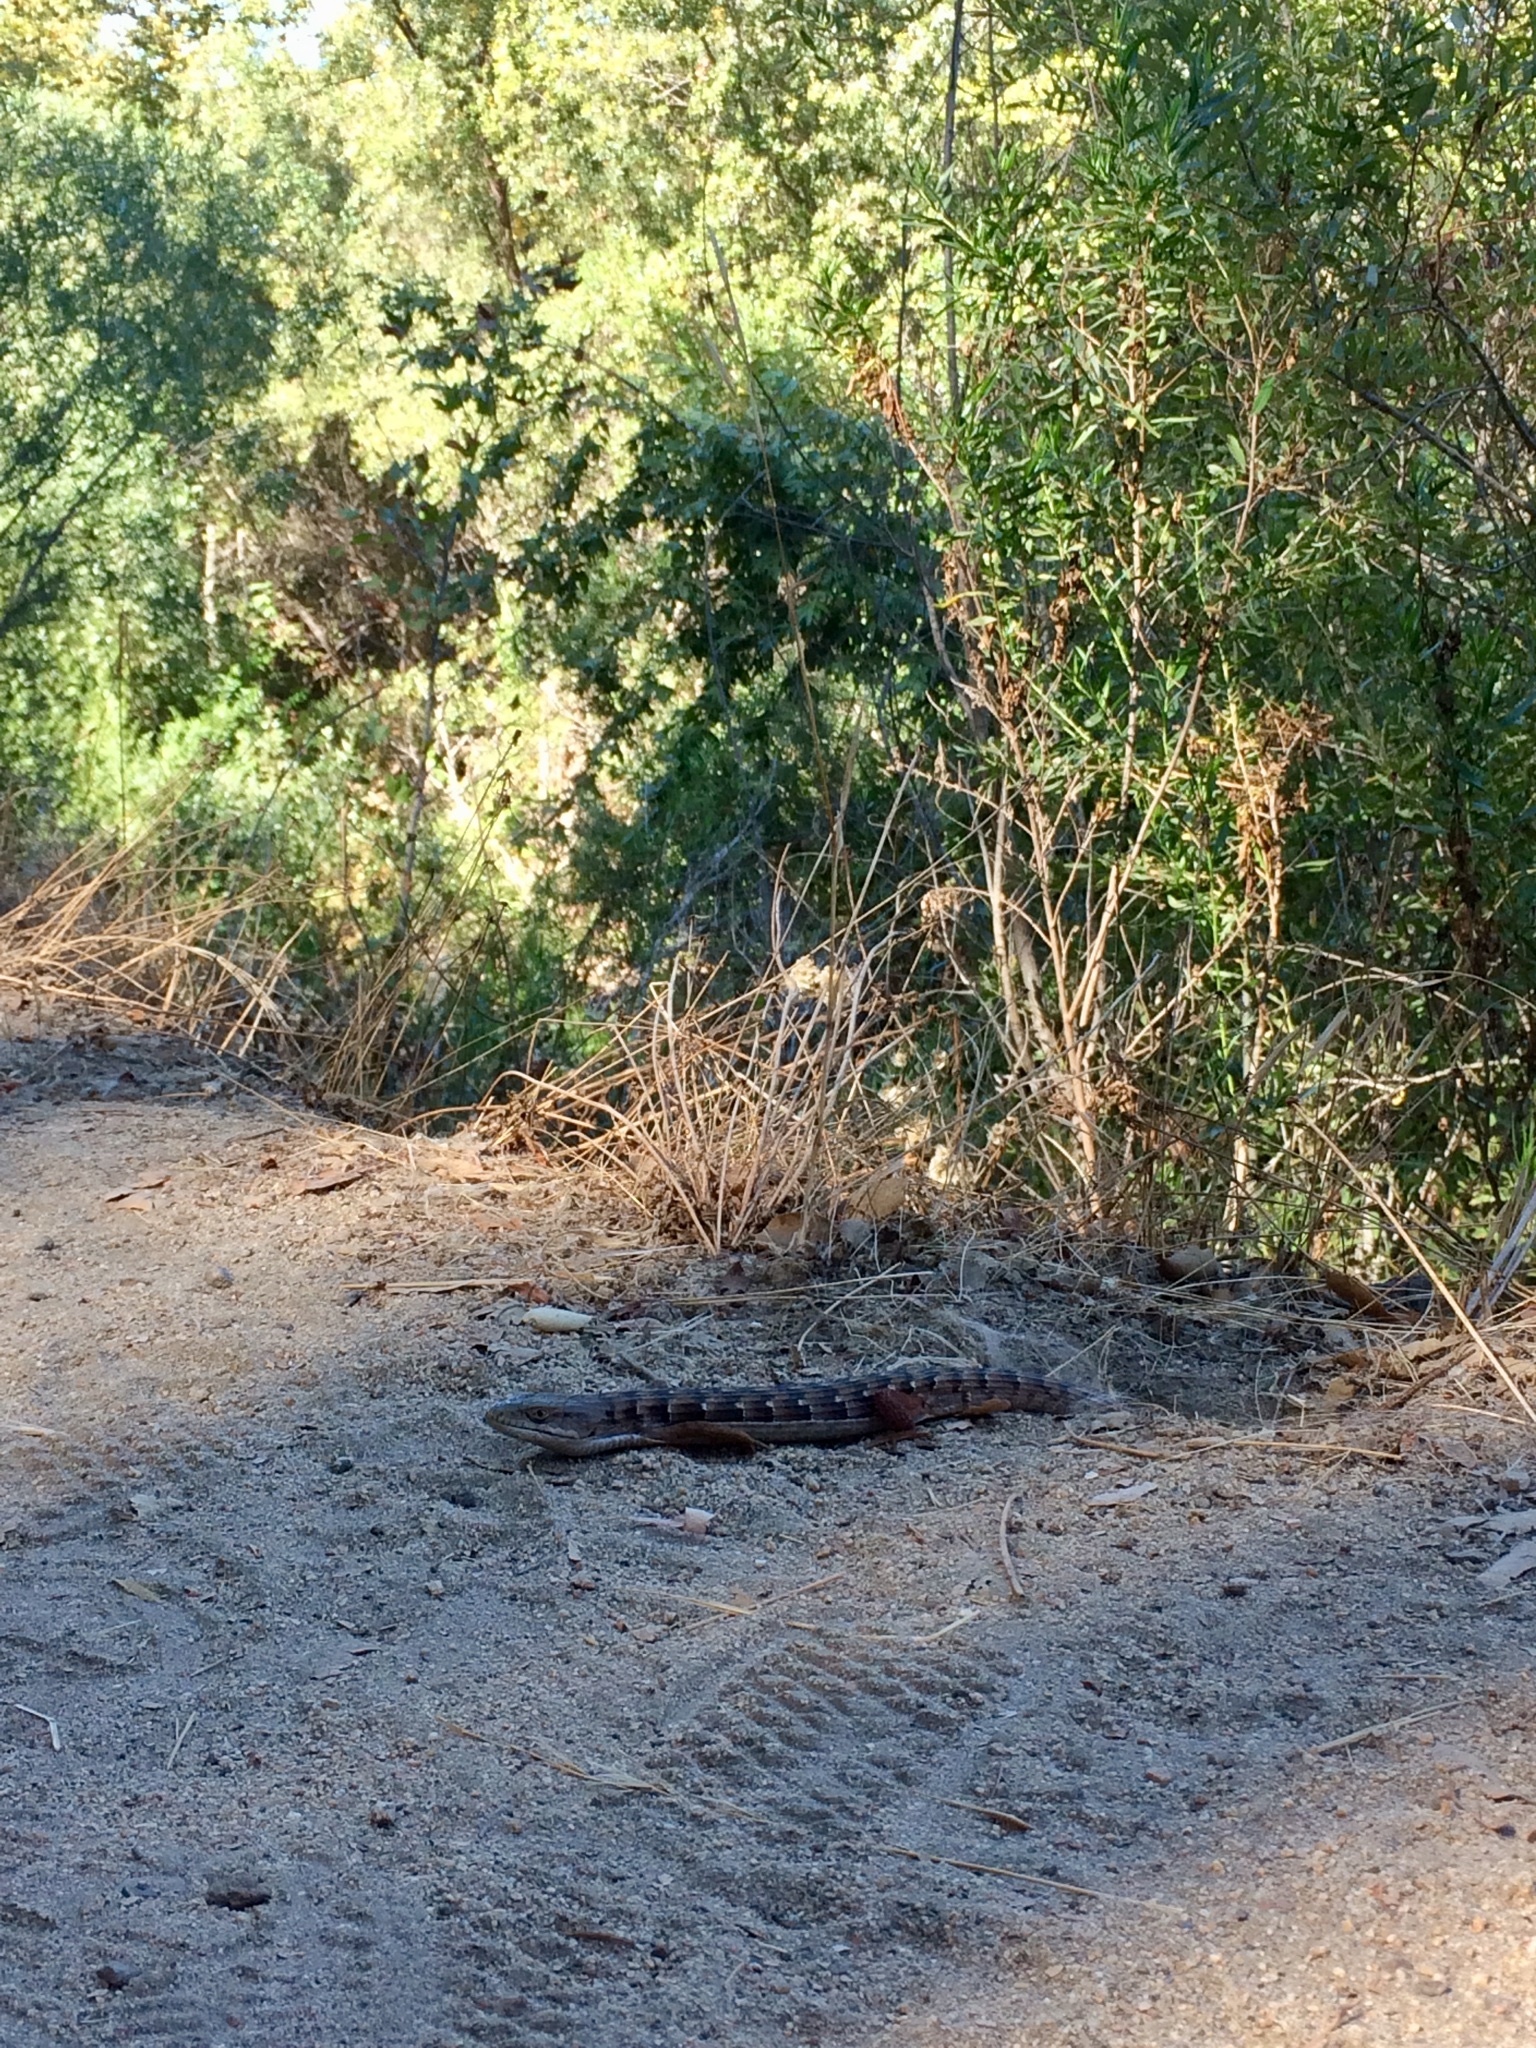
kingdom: Animalia
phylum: Chordata
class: Squamata
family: Anguidae
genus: Elgaria
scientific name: Elgaria multicarinata
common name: Southern alligator lizard
